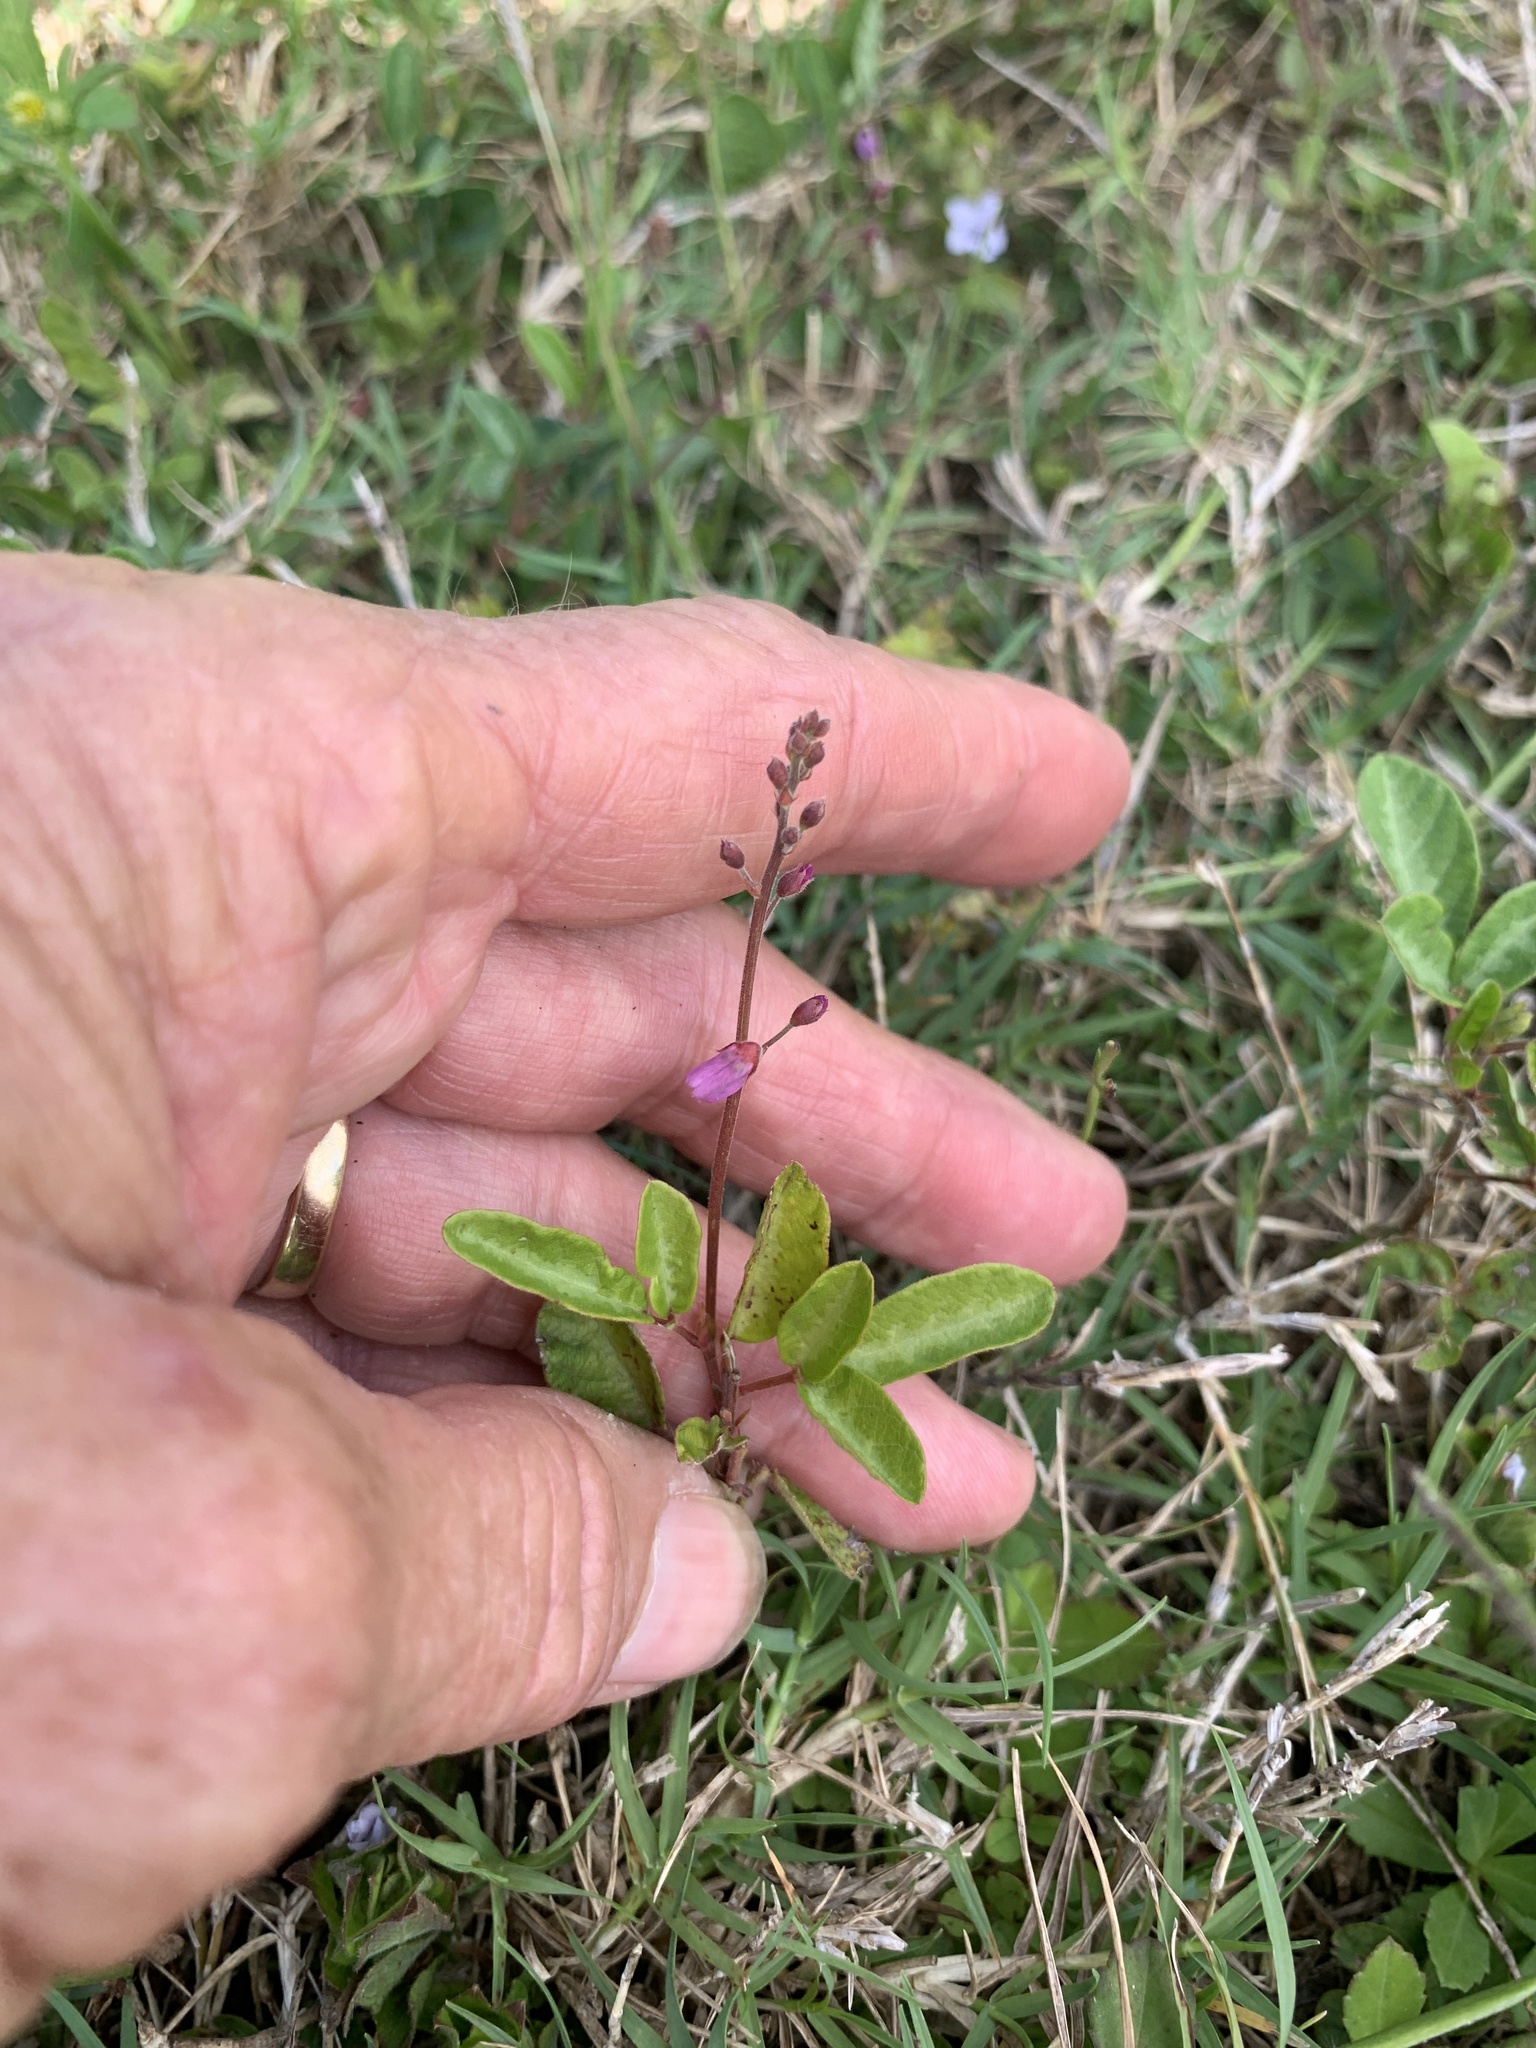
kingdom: Plantae
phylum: Tracheophyta
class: Magnoliopsida
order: Fabales
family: Fabaceae
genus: Desmodium
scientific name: Desmodium incanum
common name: Tickclover
